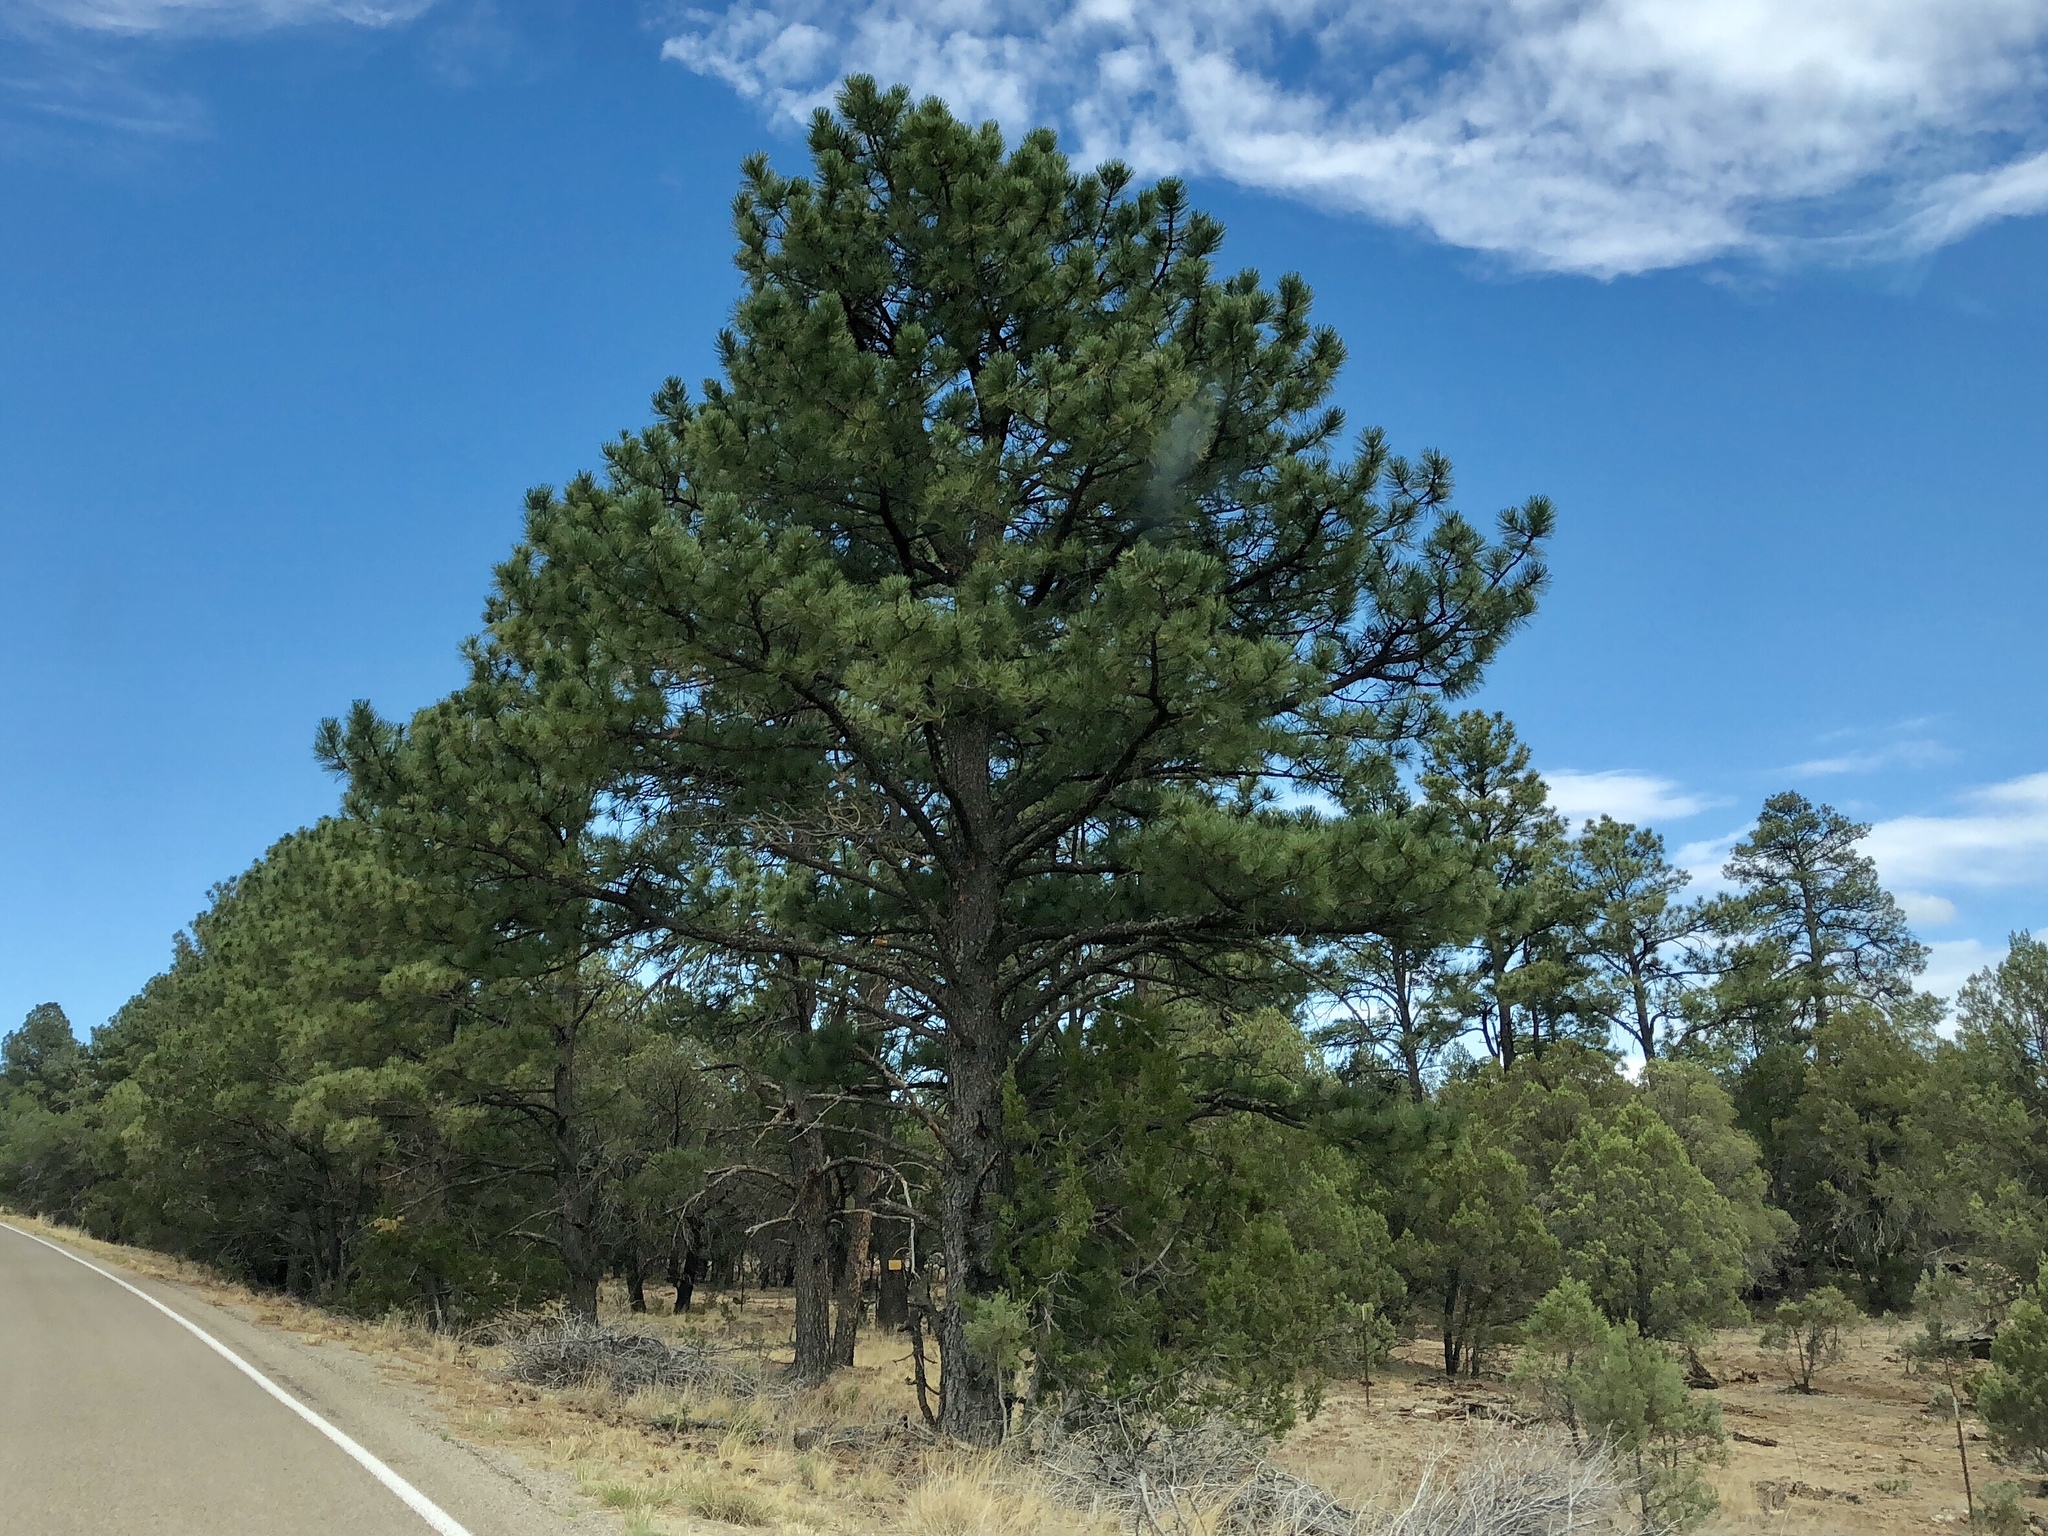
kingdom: Plantae
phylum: Tracheophyta
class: Pinopsida
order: Pinales
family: Pinaceae
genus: Pinus
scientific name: Pinus ponderosa
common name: Western yellow-pine
